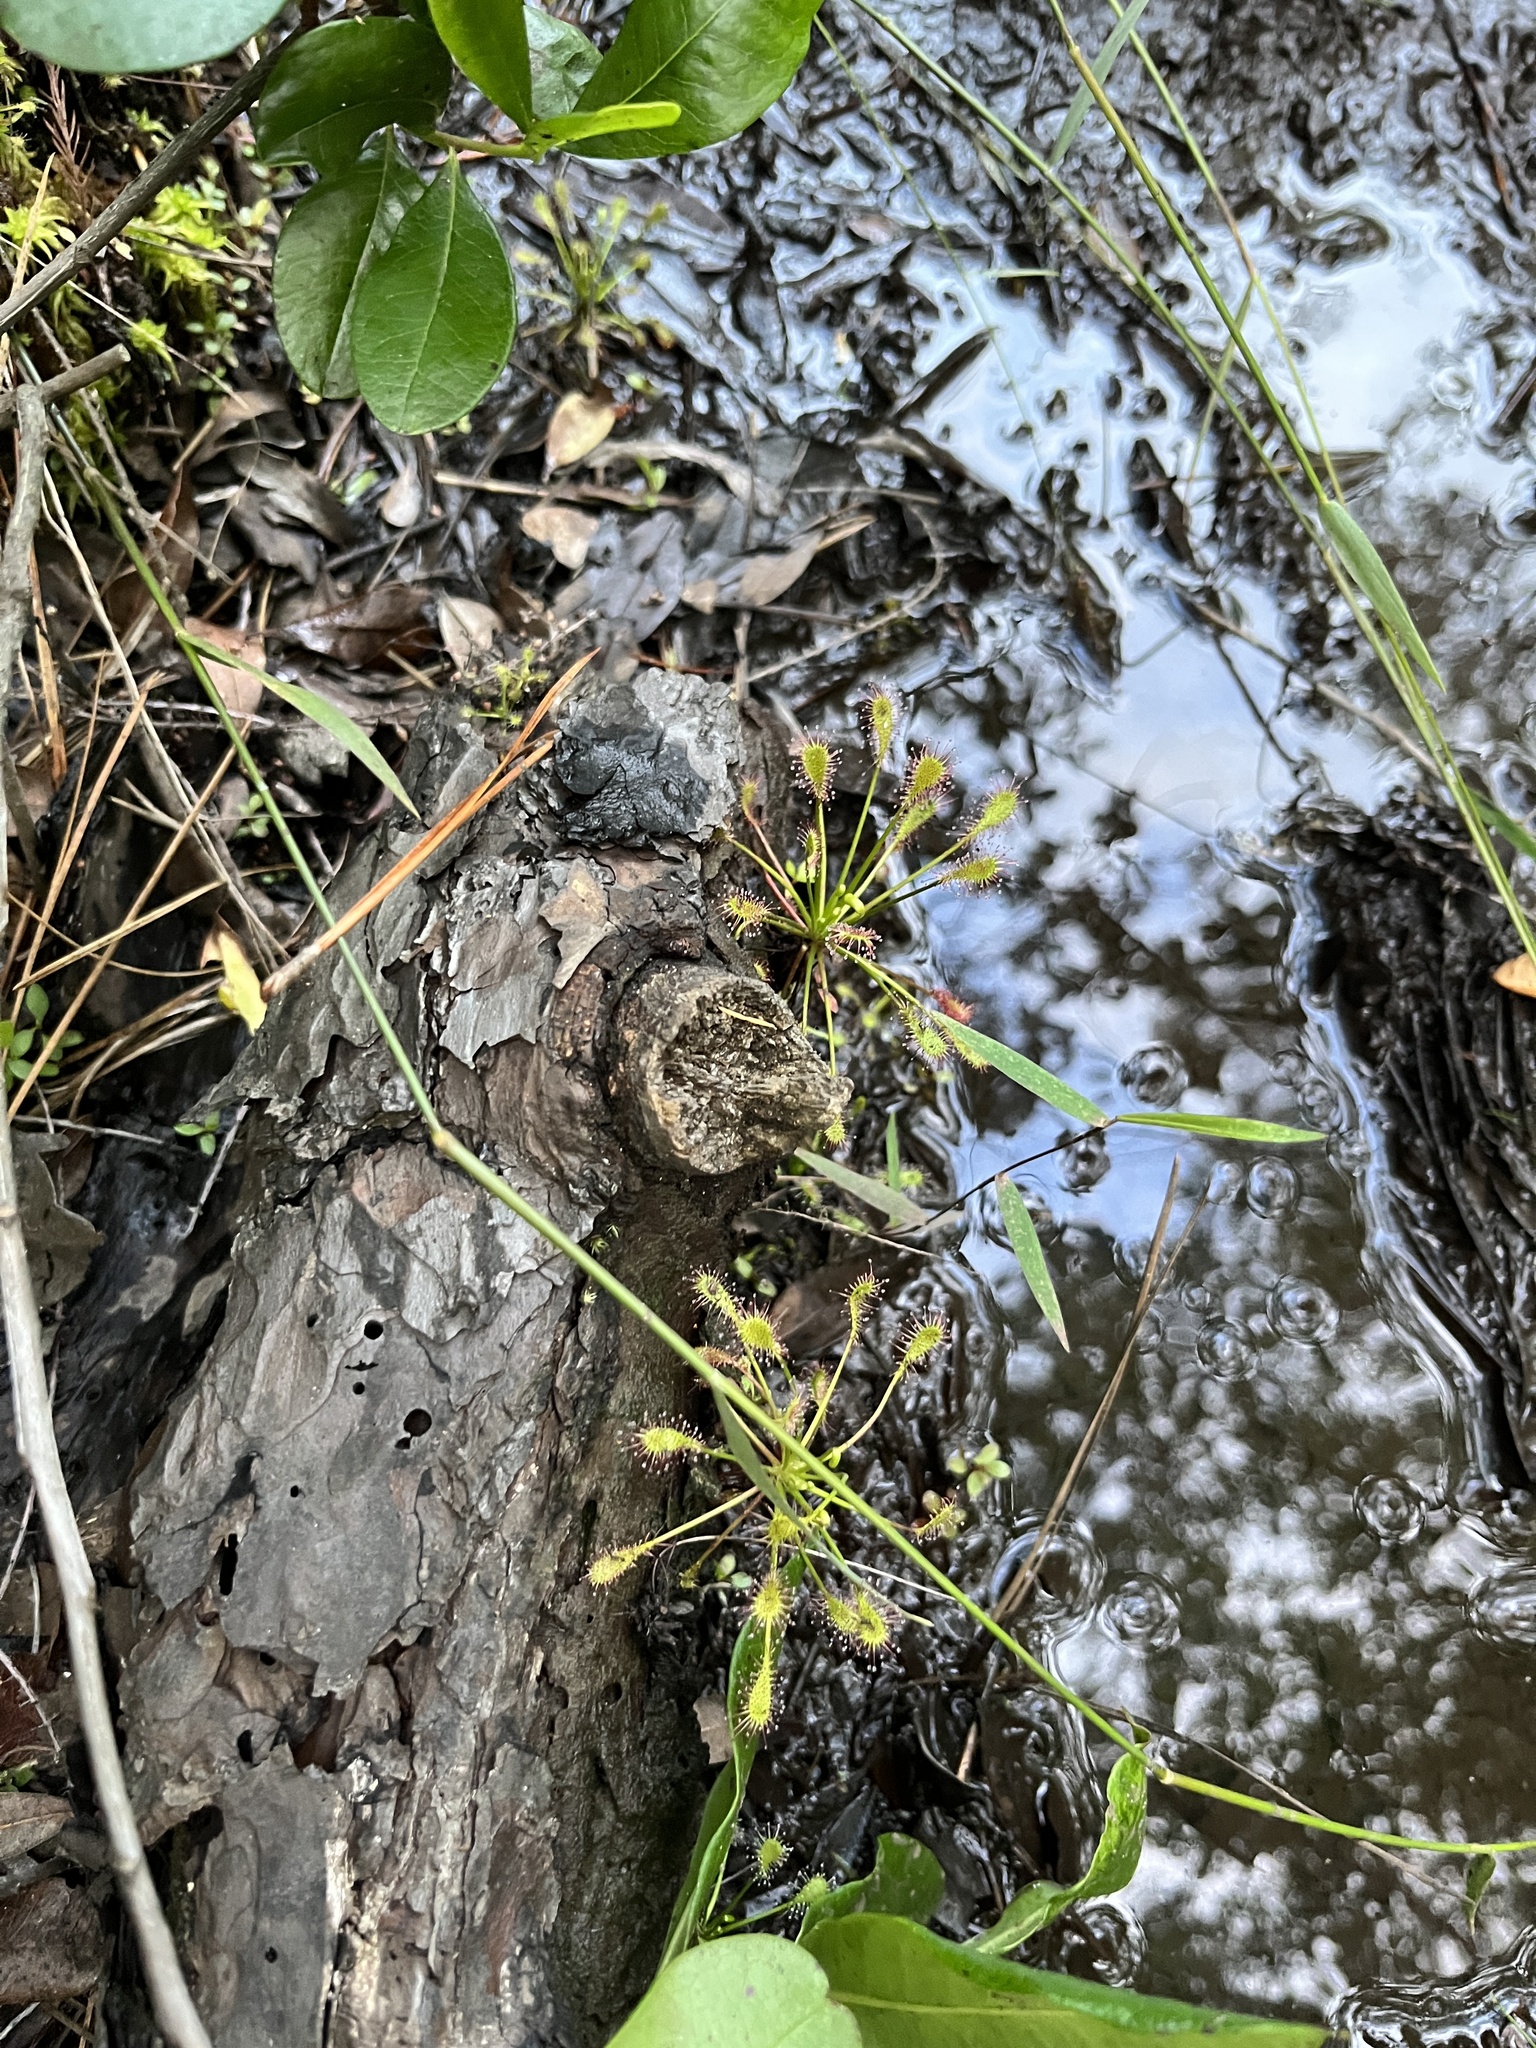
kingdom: Plantae
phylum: Tracheophyta
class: Magnoliopsida
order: Caryophyllales
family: Droseraceae
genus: Drosera
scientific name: Drosera intermedia
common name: Oblong-leaved sundew
